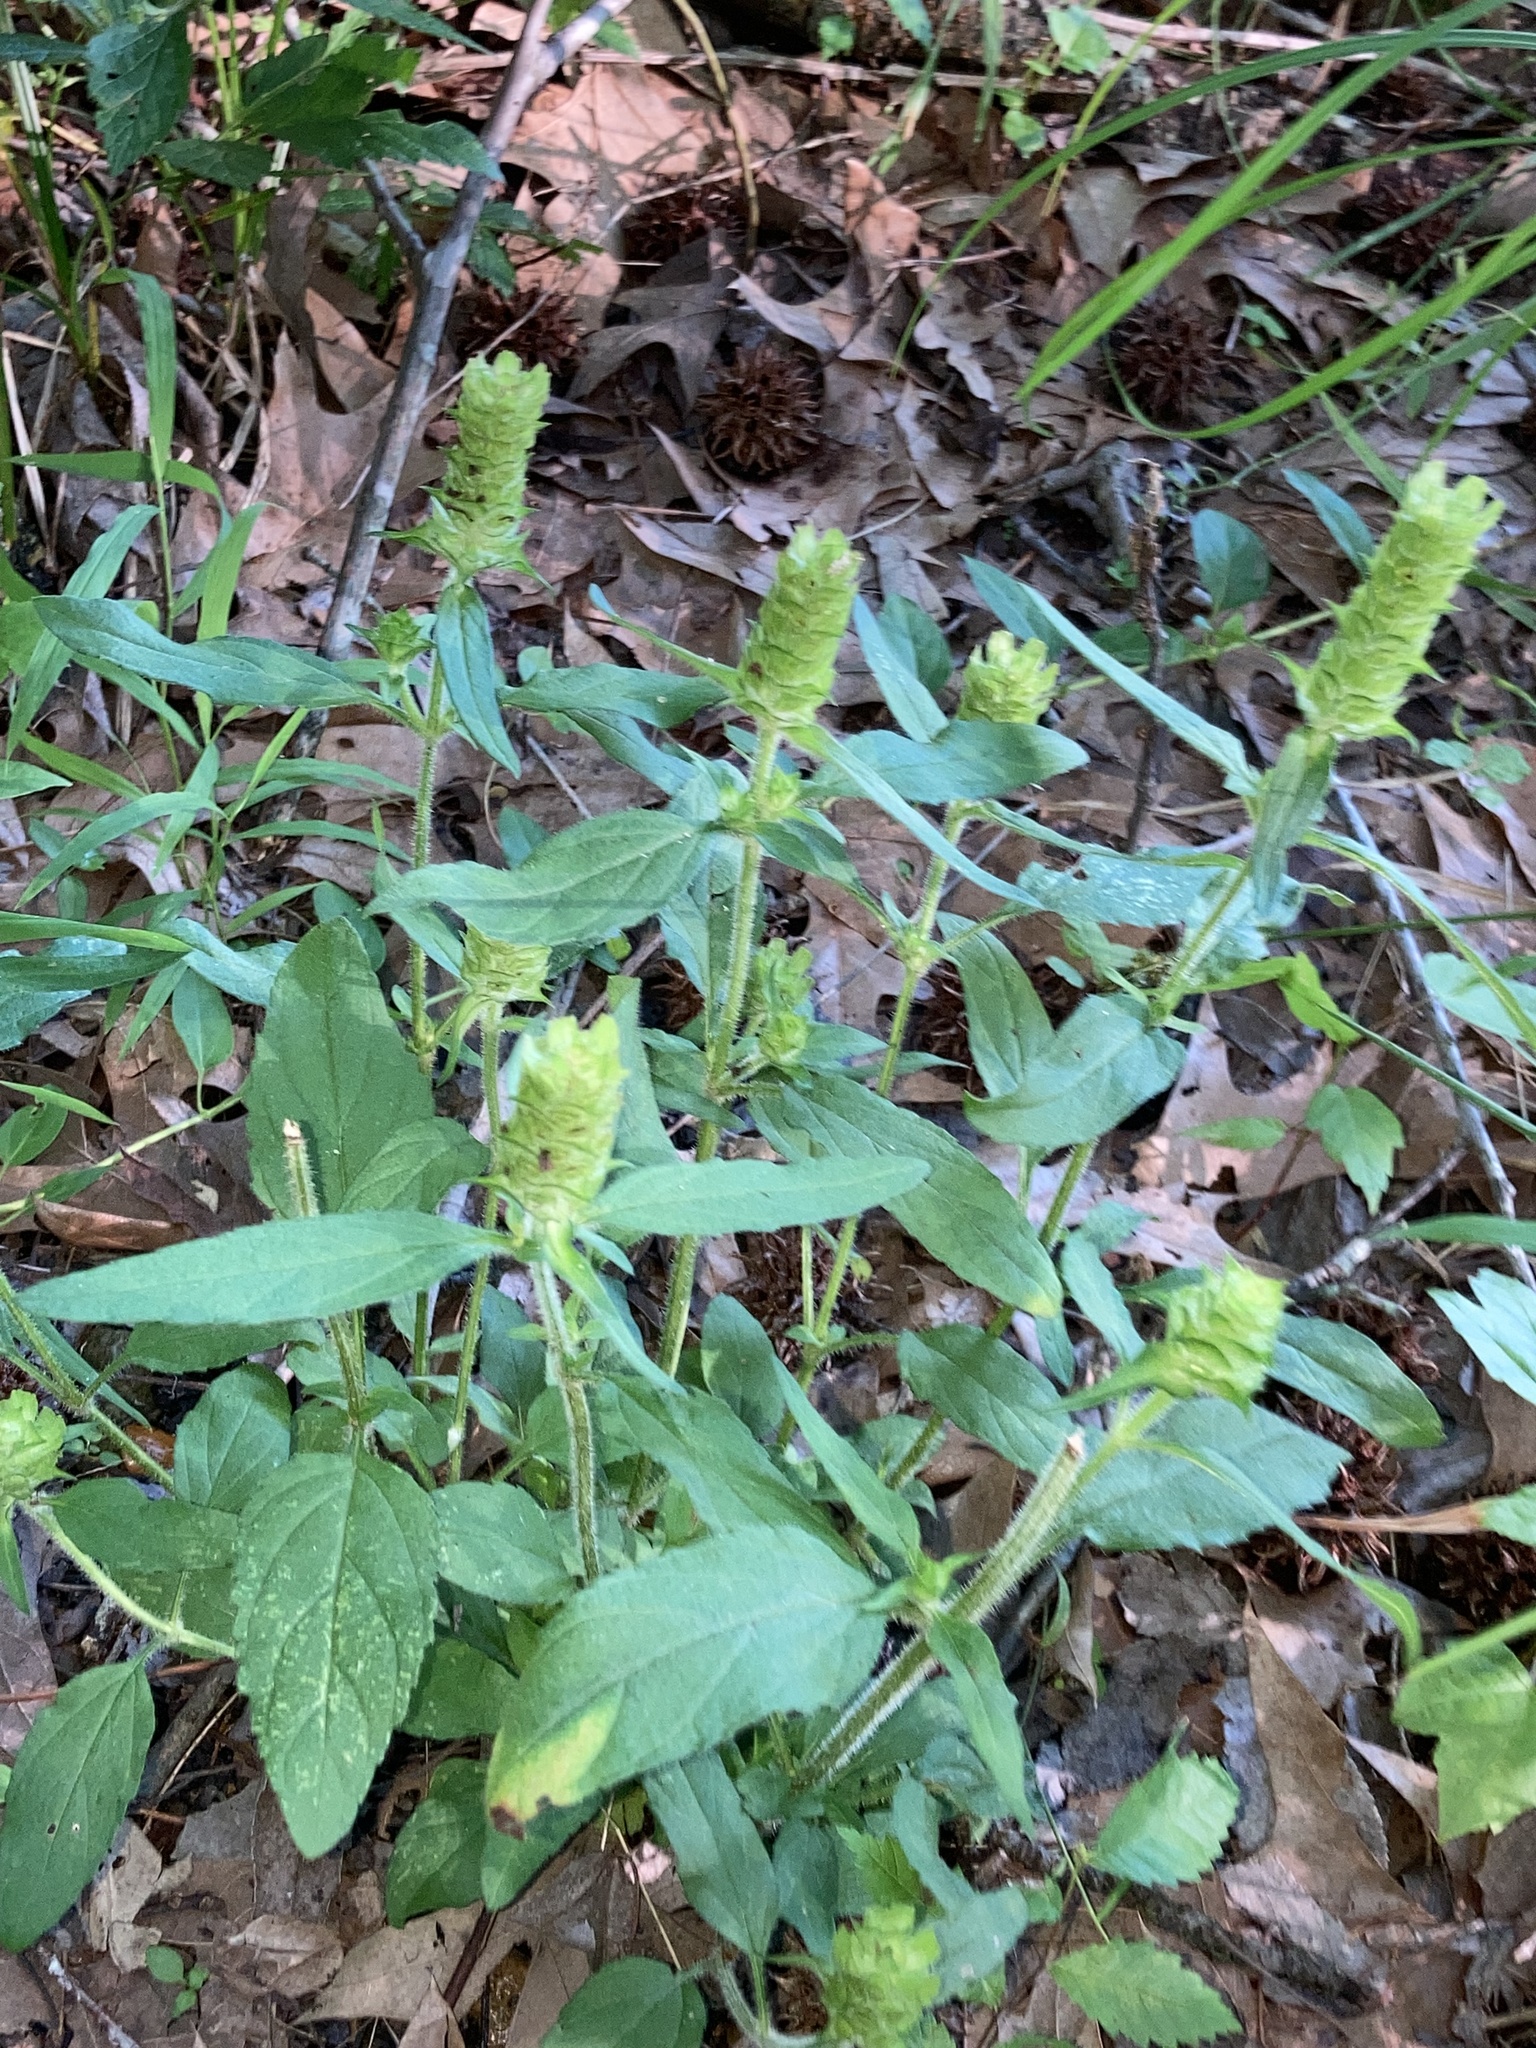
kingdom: Plantae
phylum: Tracheophyta
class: Magnoliopsida
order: Lamiales
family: Lamiaceae
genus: Prunella
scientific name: Prunella vulgaris
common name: Heal-all
